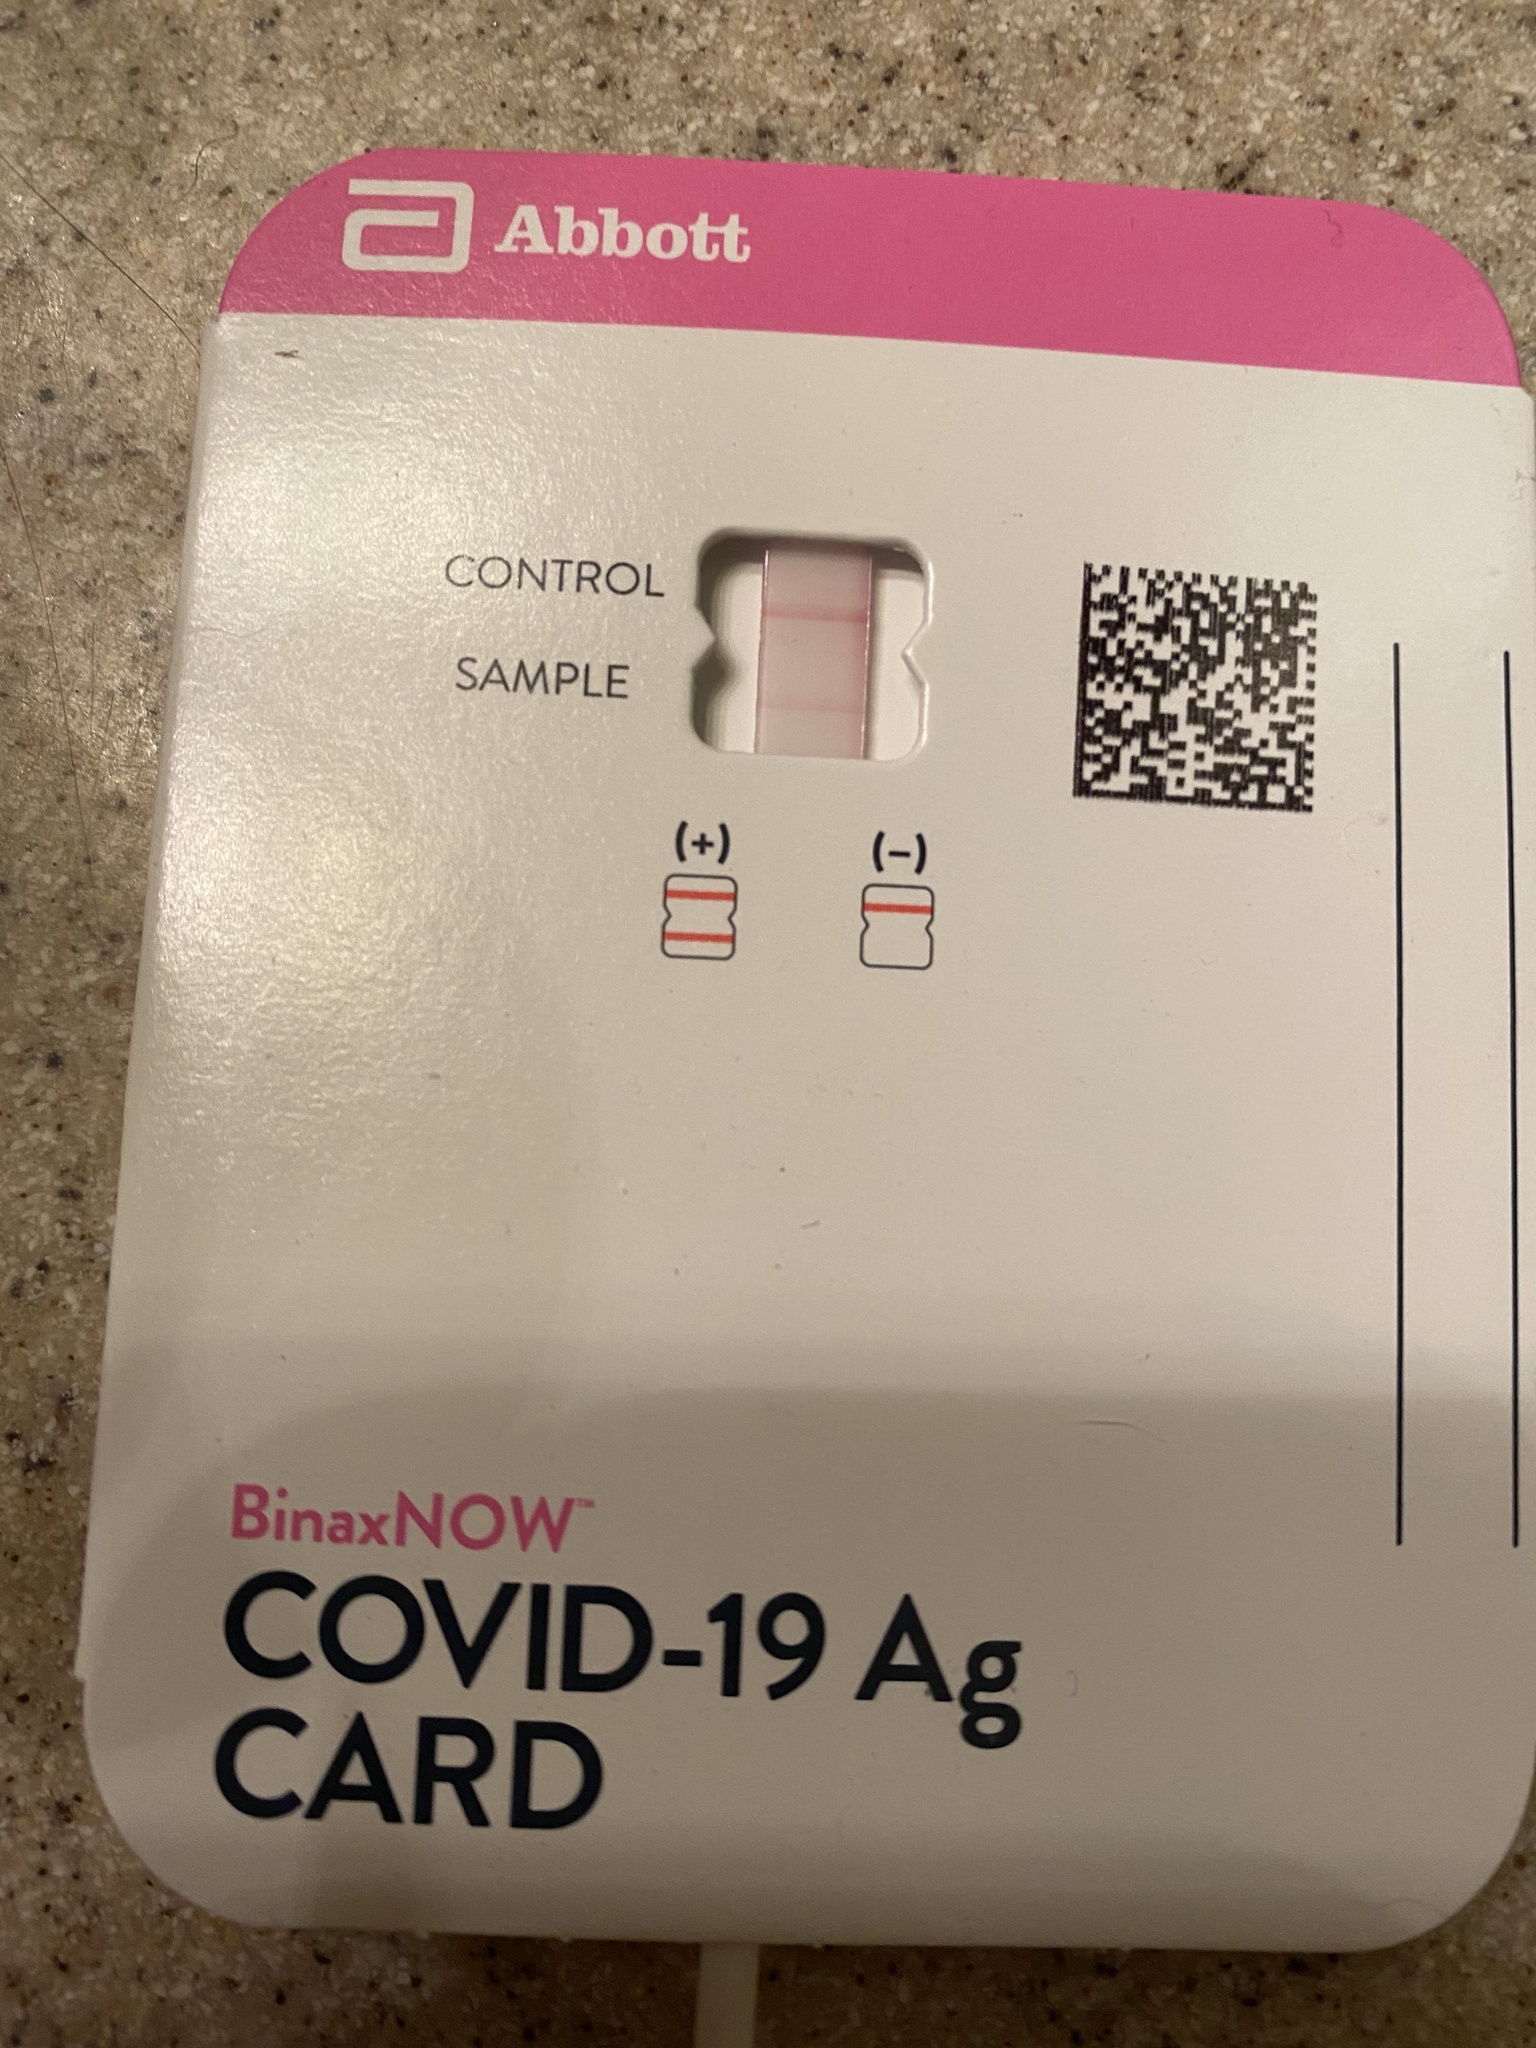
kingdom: Viruses
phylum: Pisuviricota
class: Pisoniviricetes
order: Nidovirales
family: Coronaviridae
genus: Betacoronavirus
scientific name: Betacoronavirus
